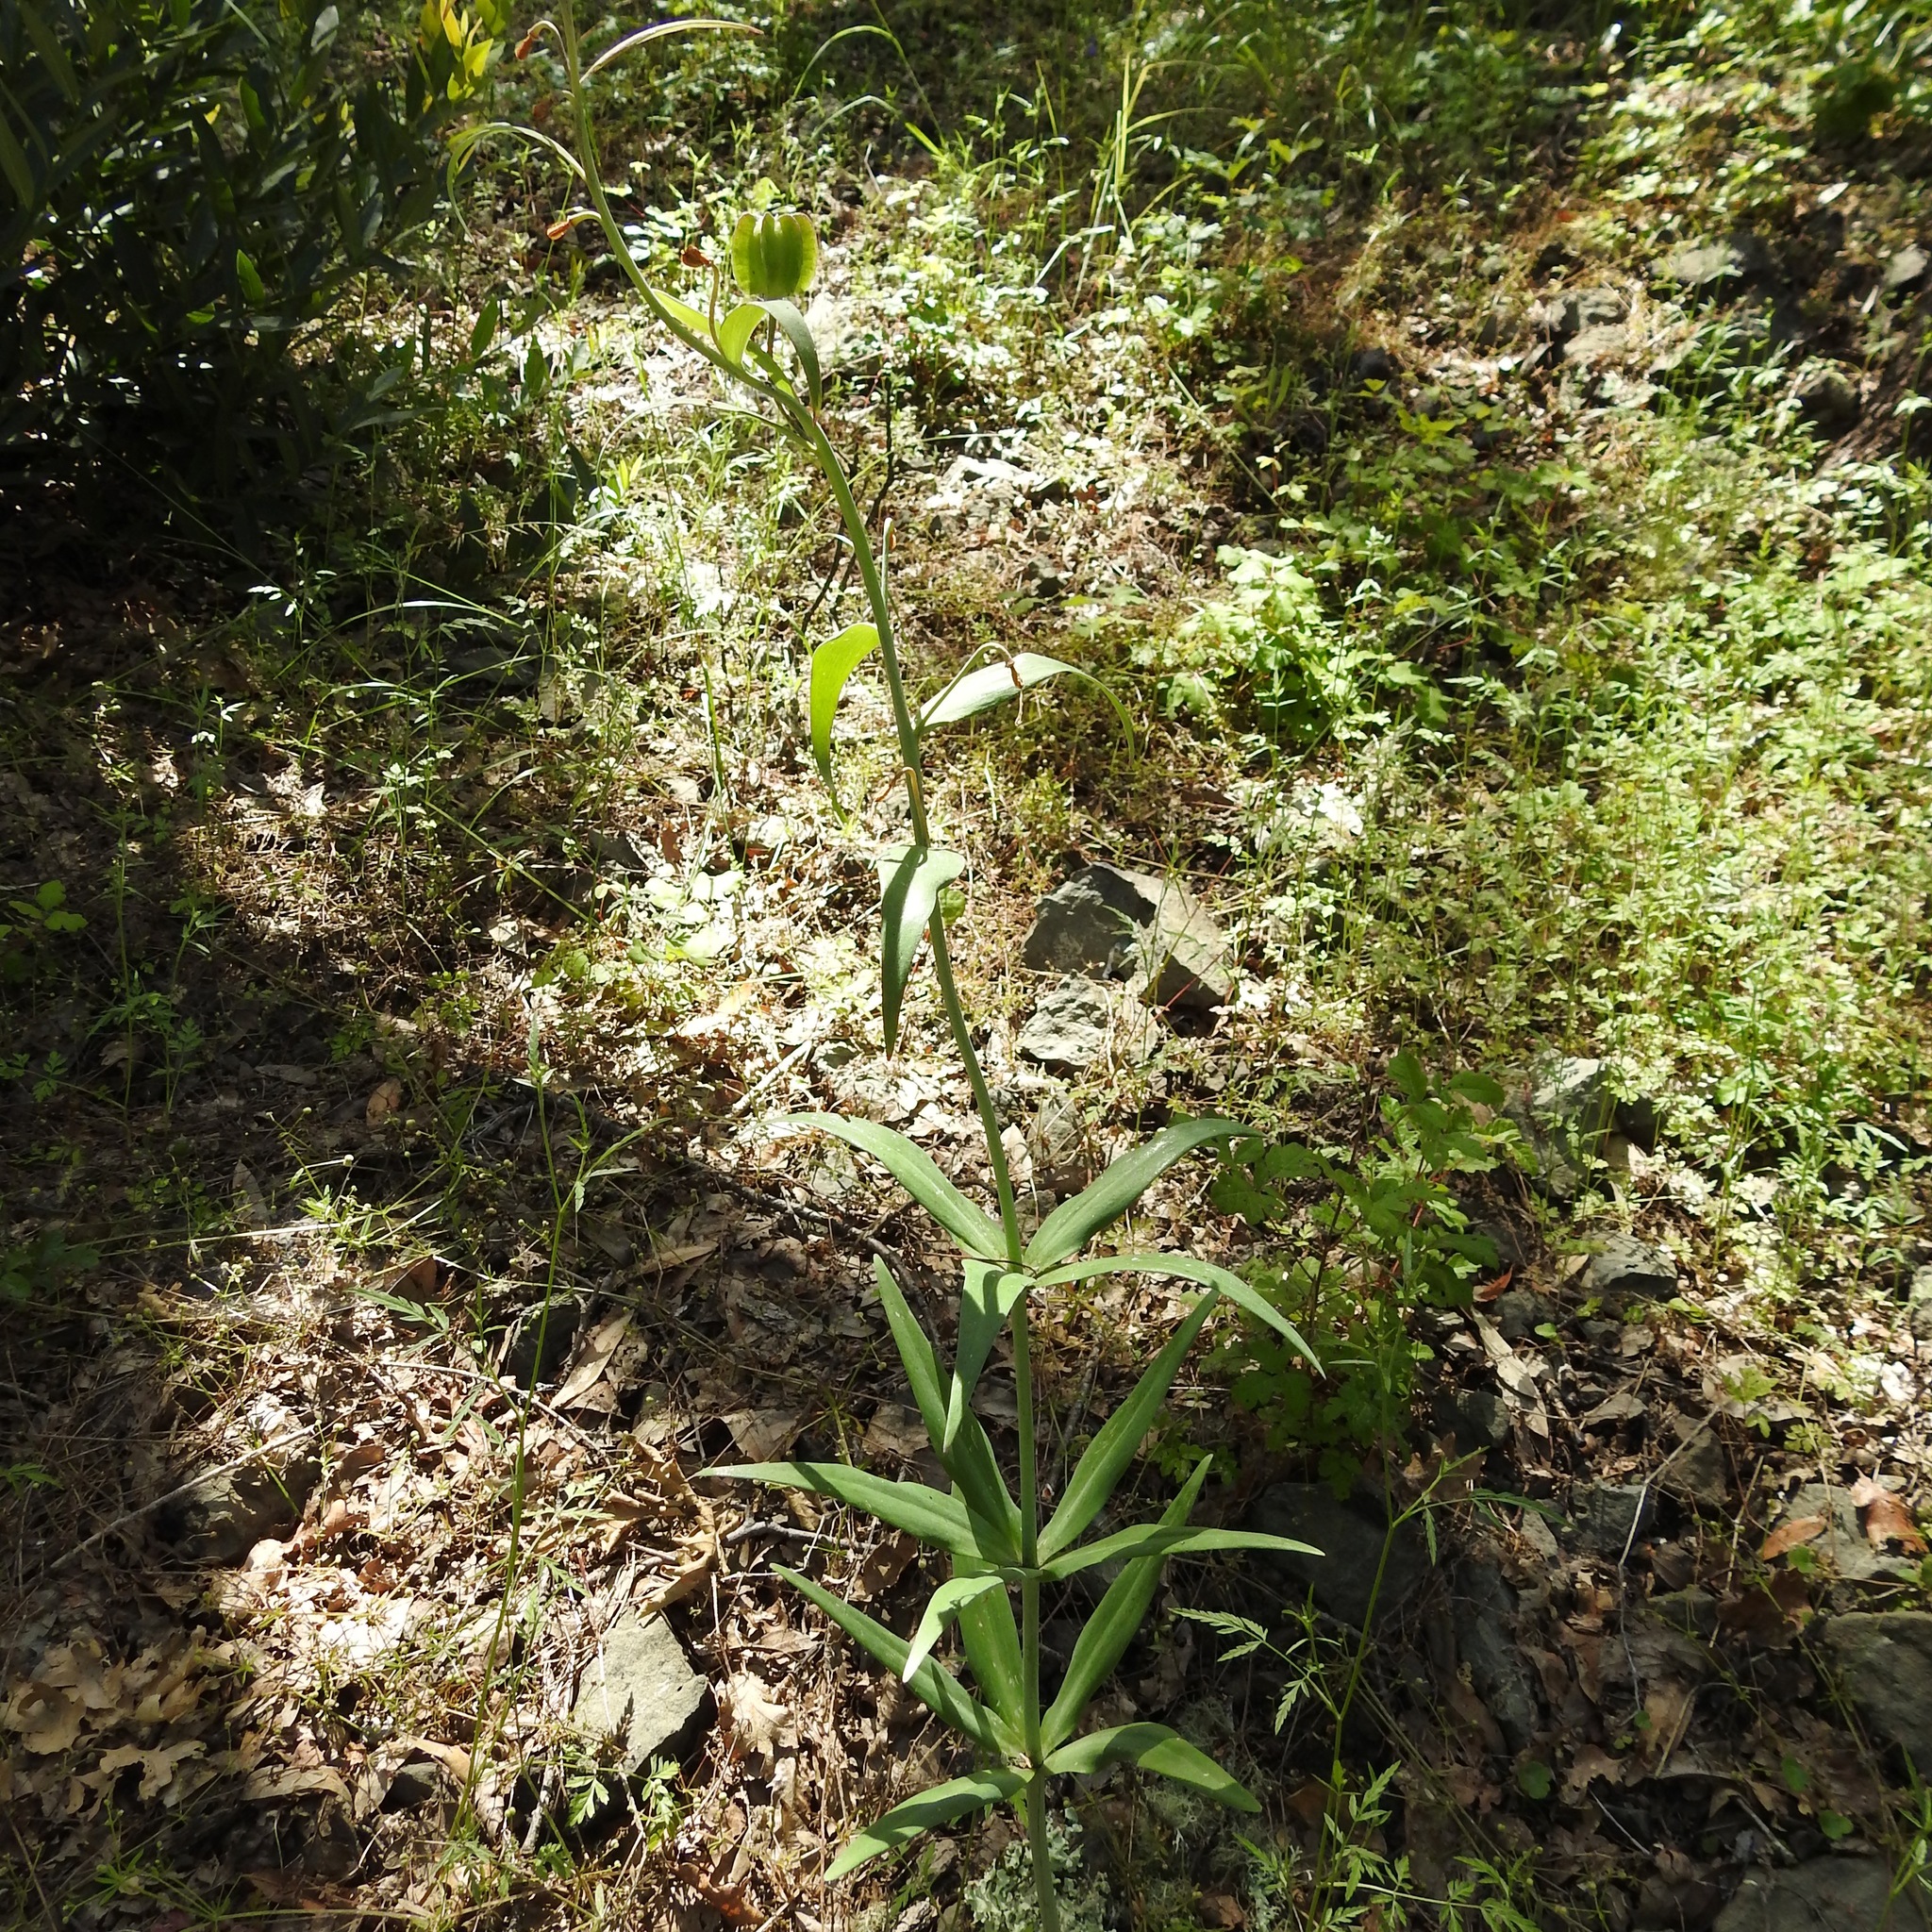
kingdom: Plantae
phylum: Tracheophyta
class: Liliopsida
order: Liliales
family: Liliaceae
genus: Fritillaria
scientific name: Fritillaria affinis
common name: Ojai fritillary
